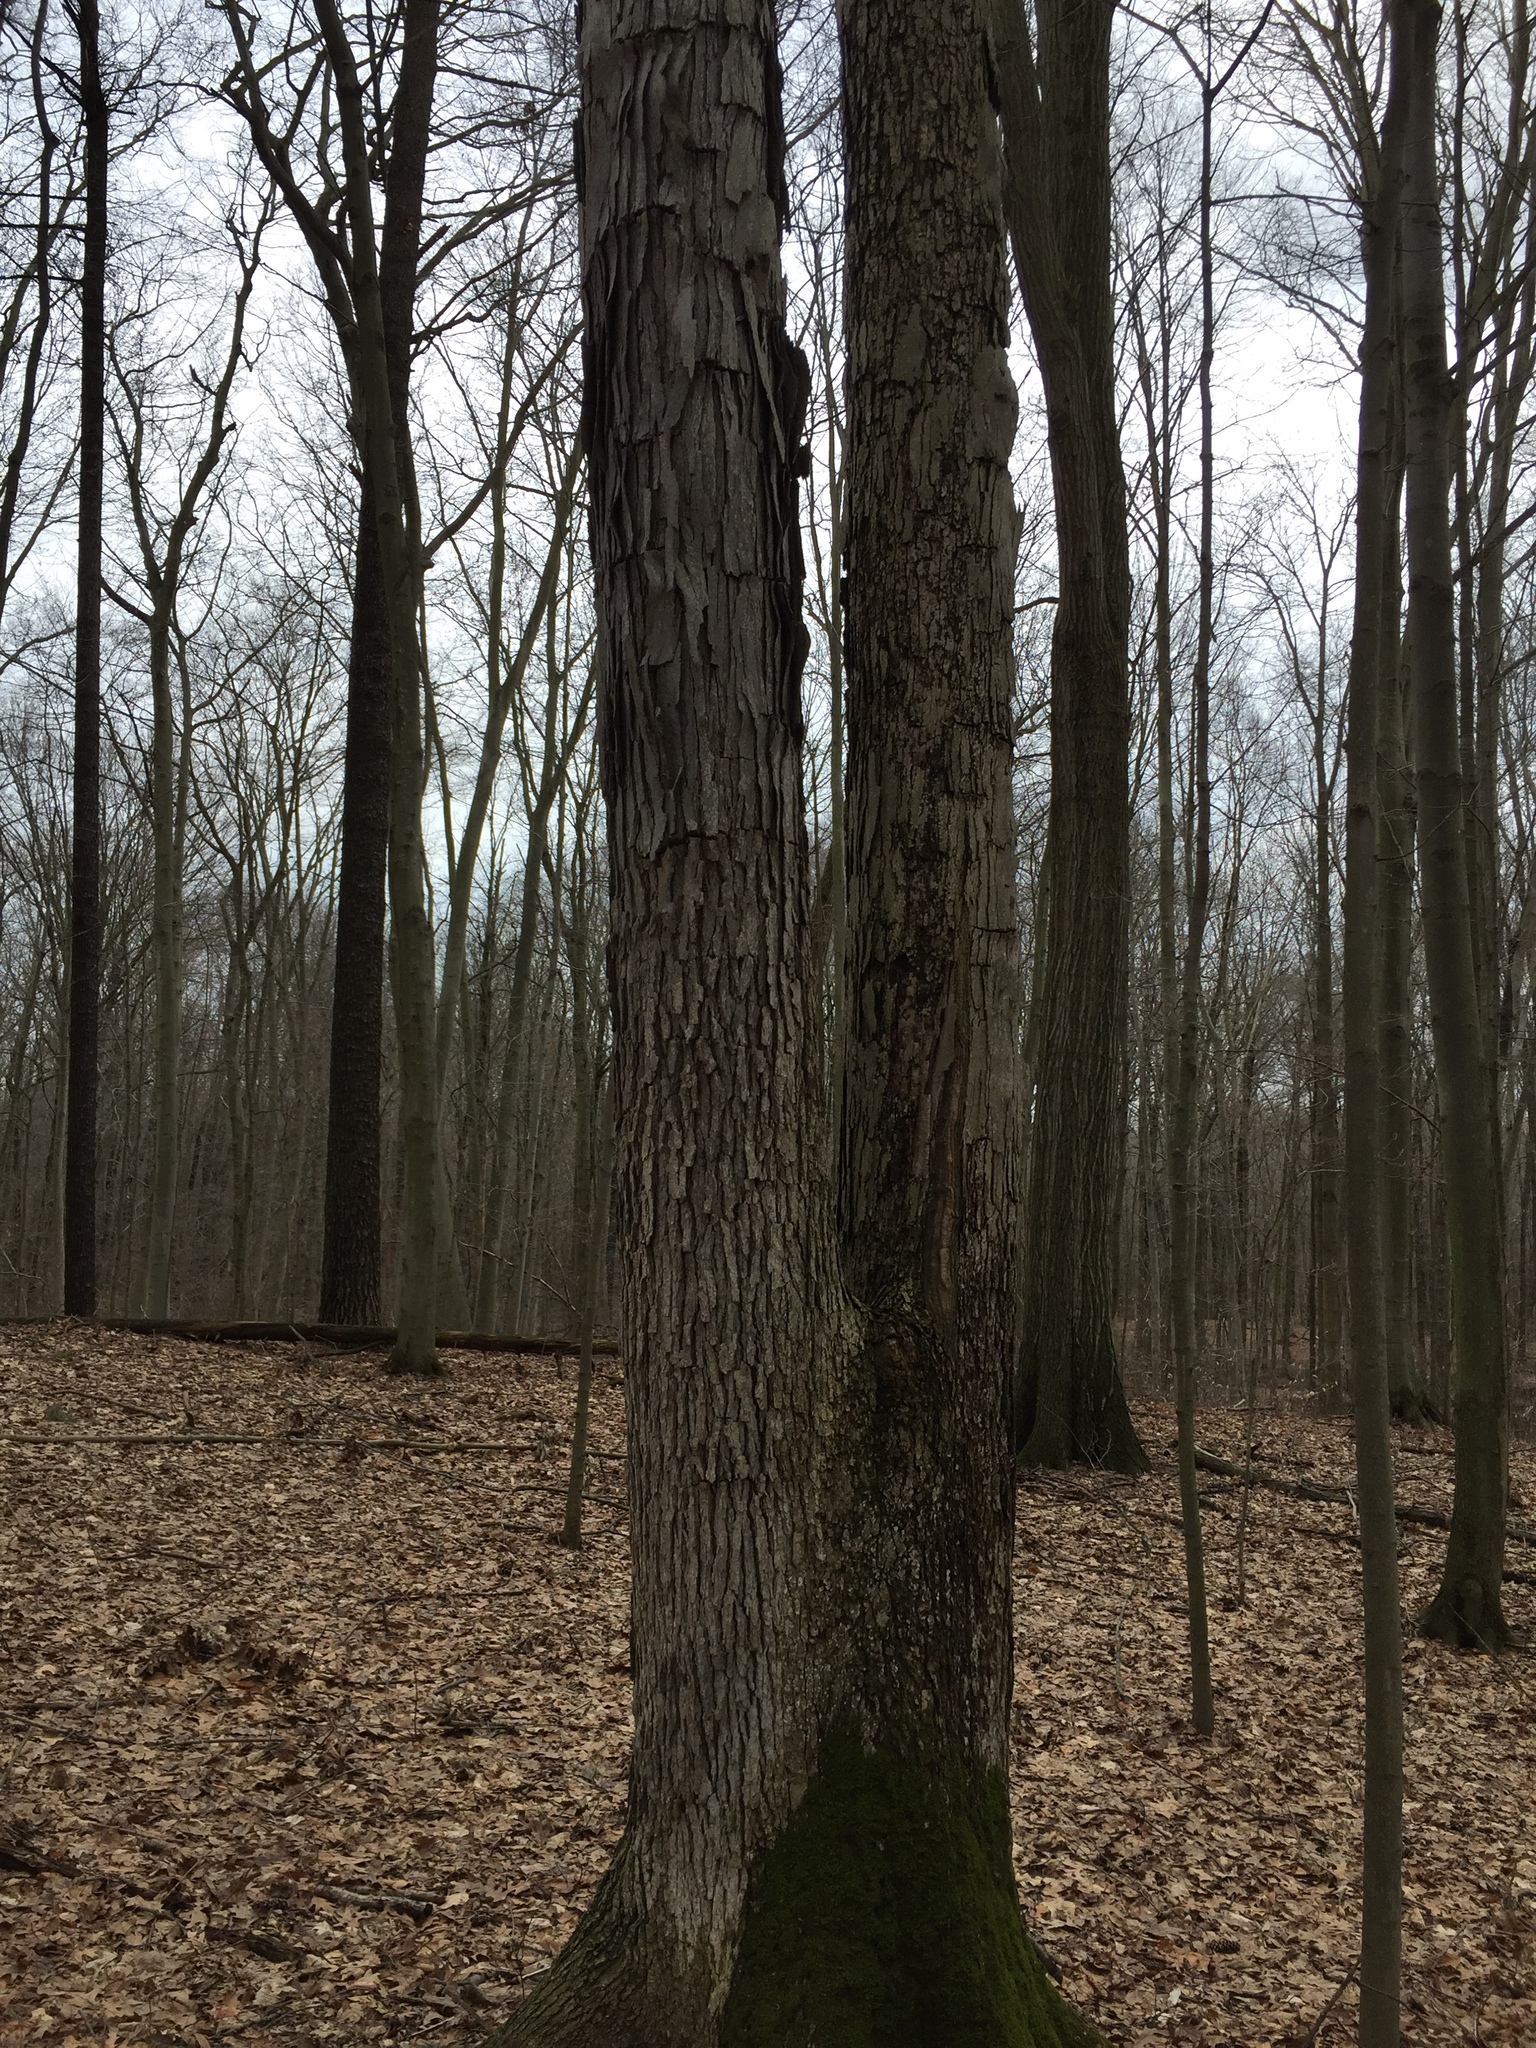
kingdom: Plantae
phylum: Tracheophyta
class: Magnoliopsida
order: Fagales
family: Fagaceae
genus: Quercus
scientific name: Quercus alba
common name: White oak
